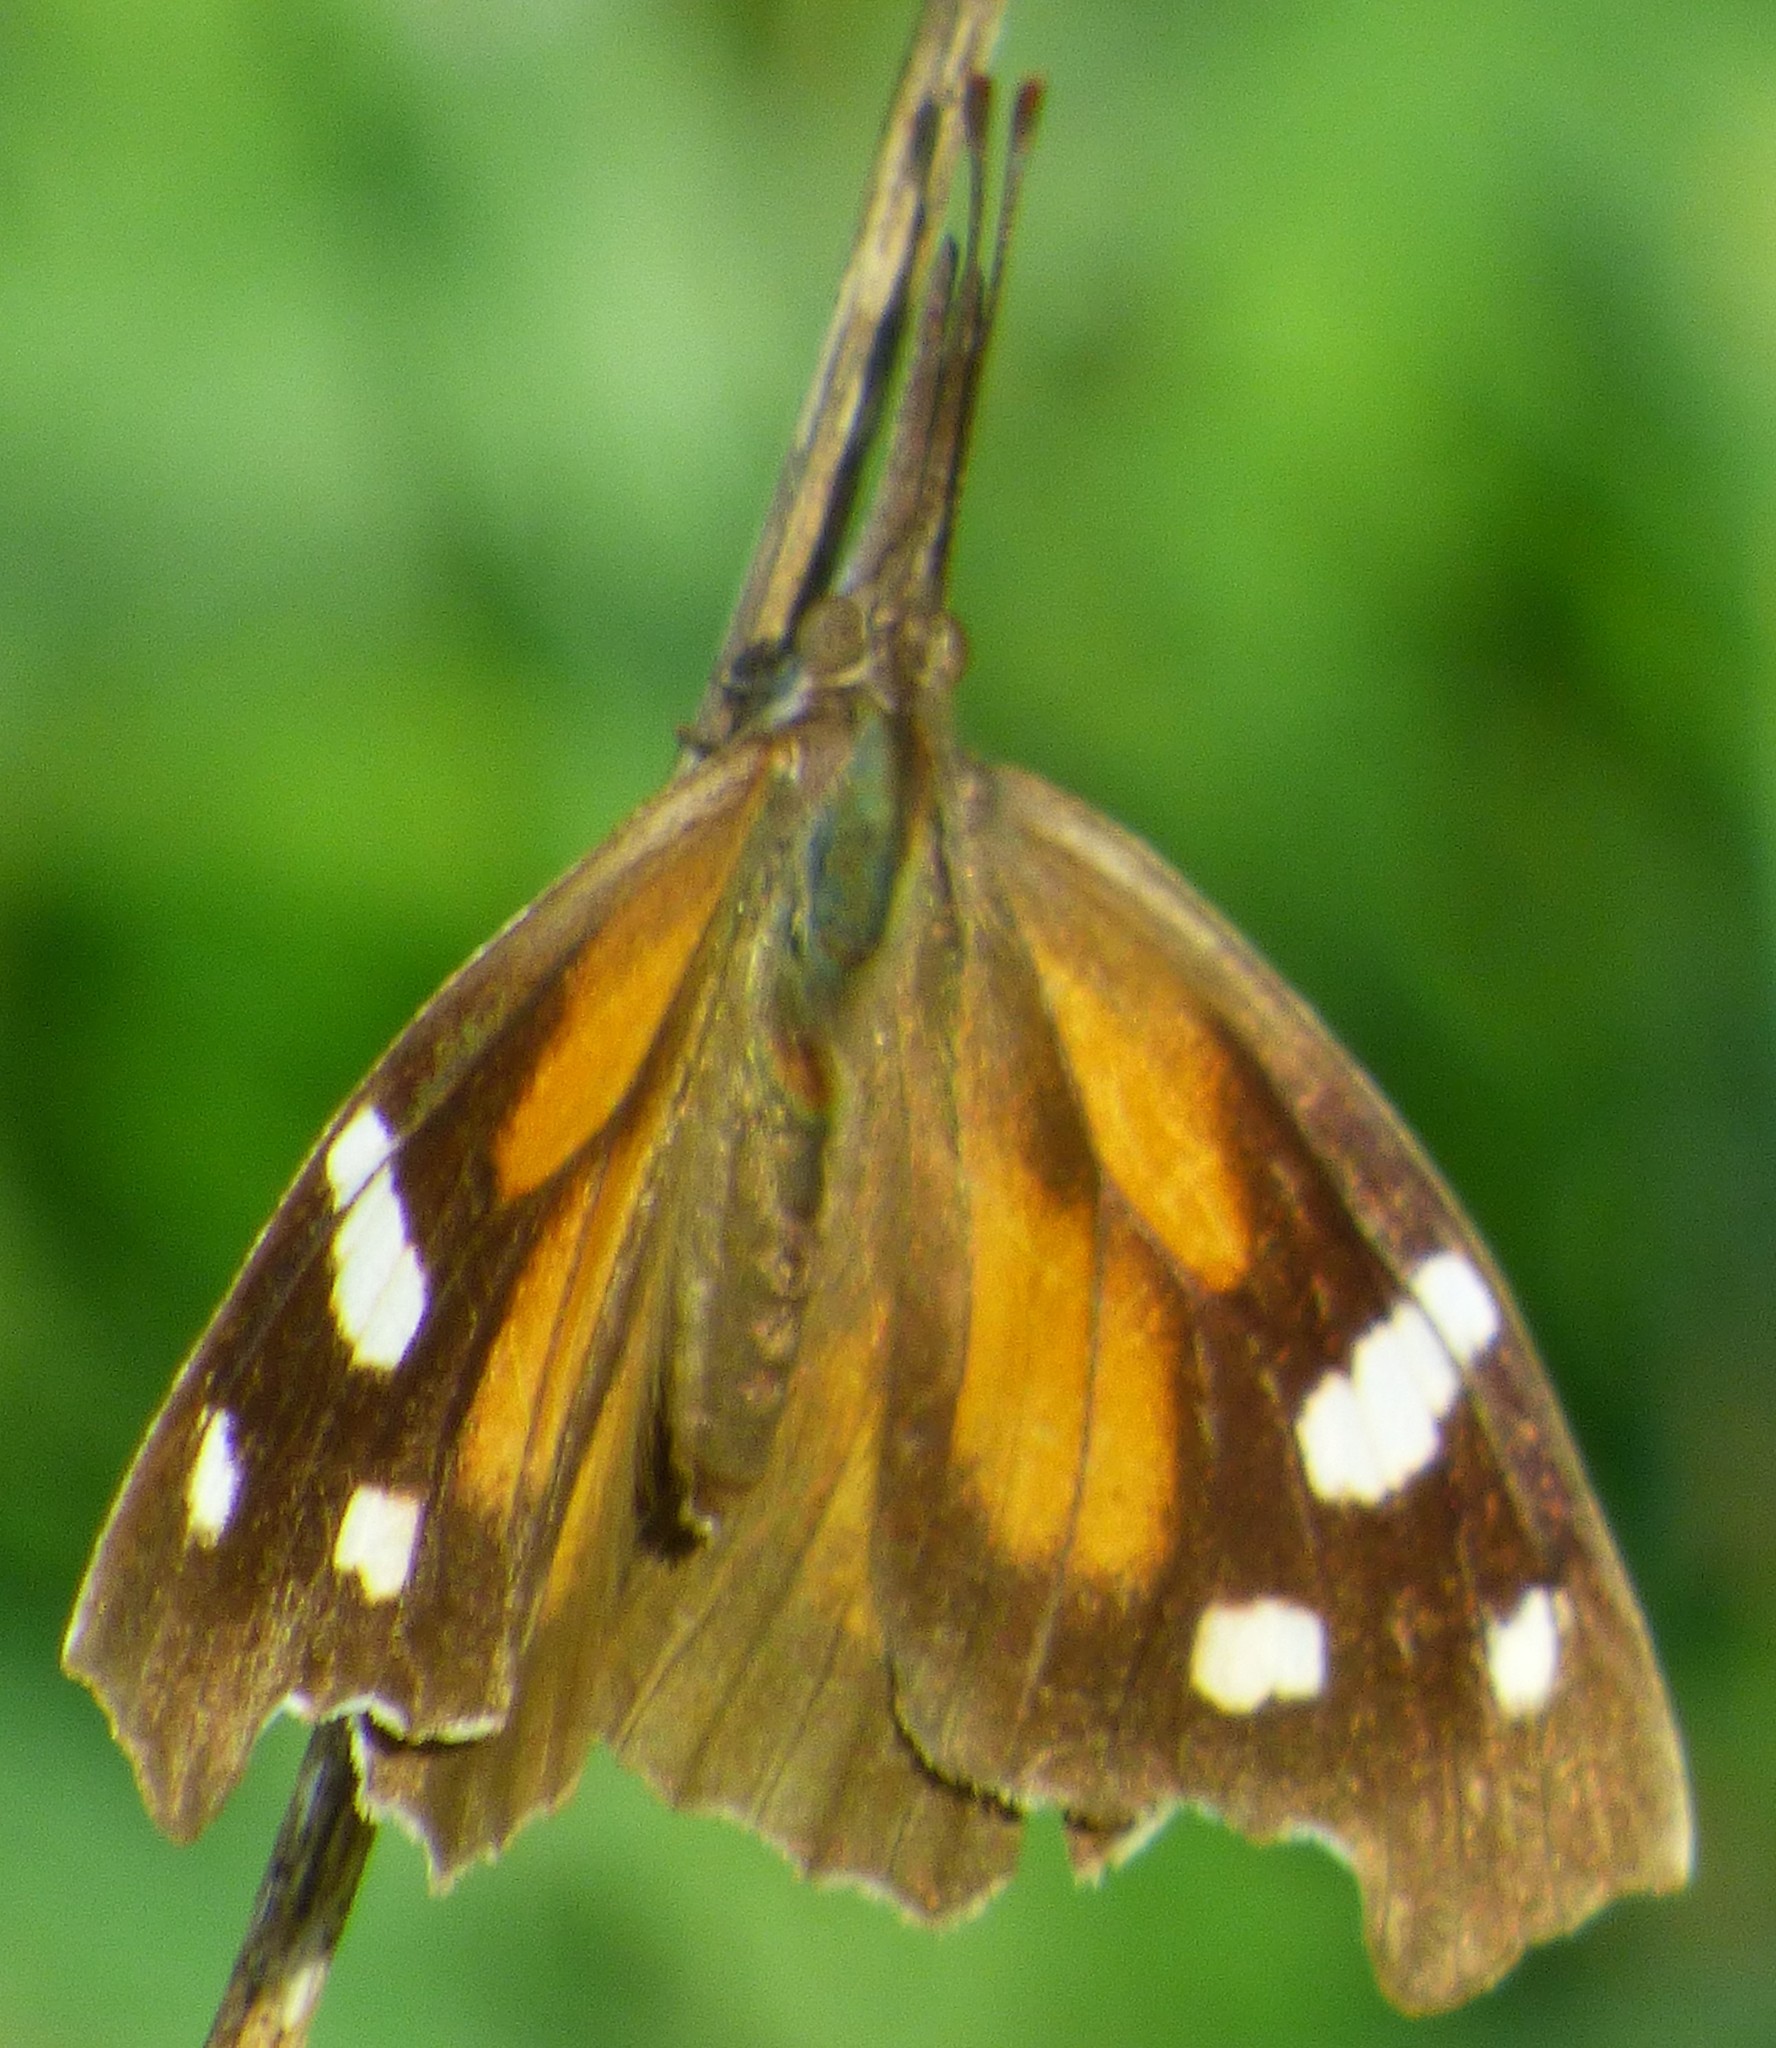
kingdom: Animalia
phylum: Arthropoda
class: Insecta
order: Lepidoptera
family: Nymphalidae
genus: Libytheana
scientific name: Libytheana carinenta
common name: American snout
